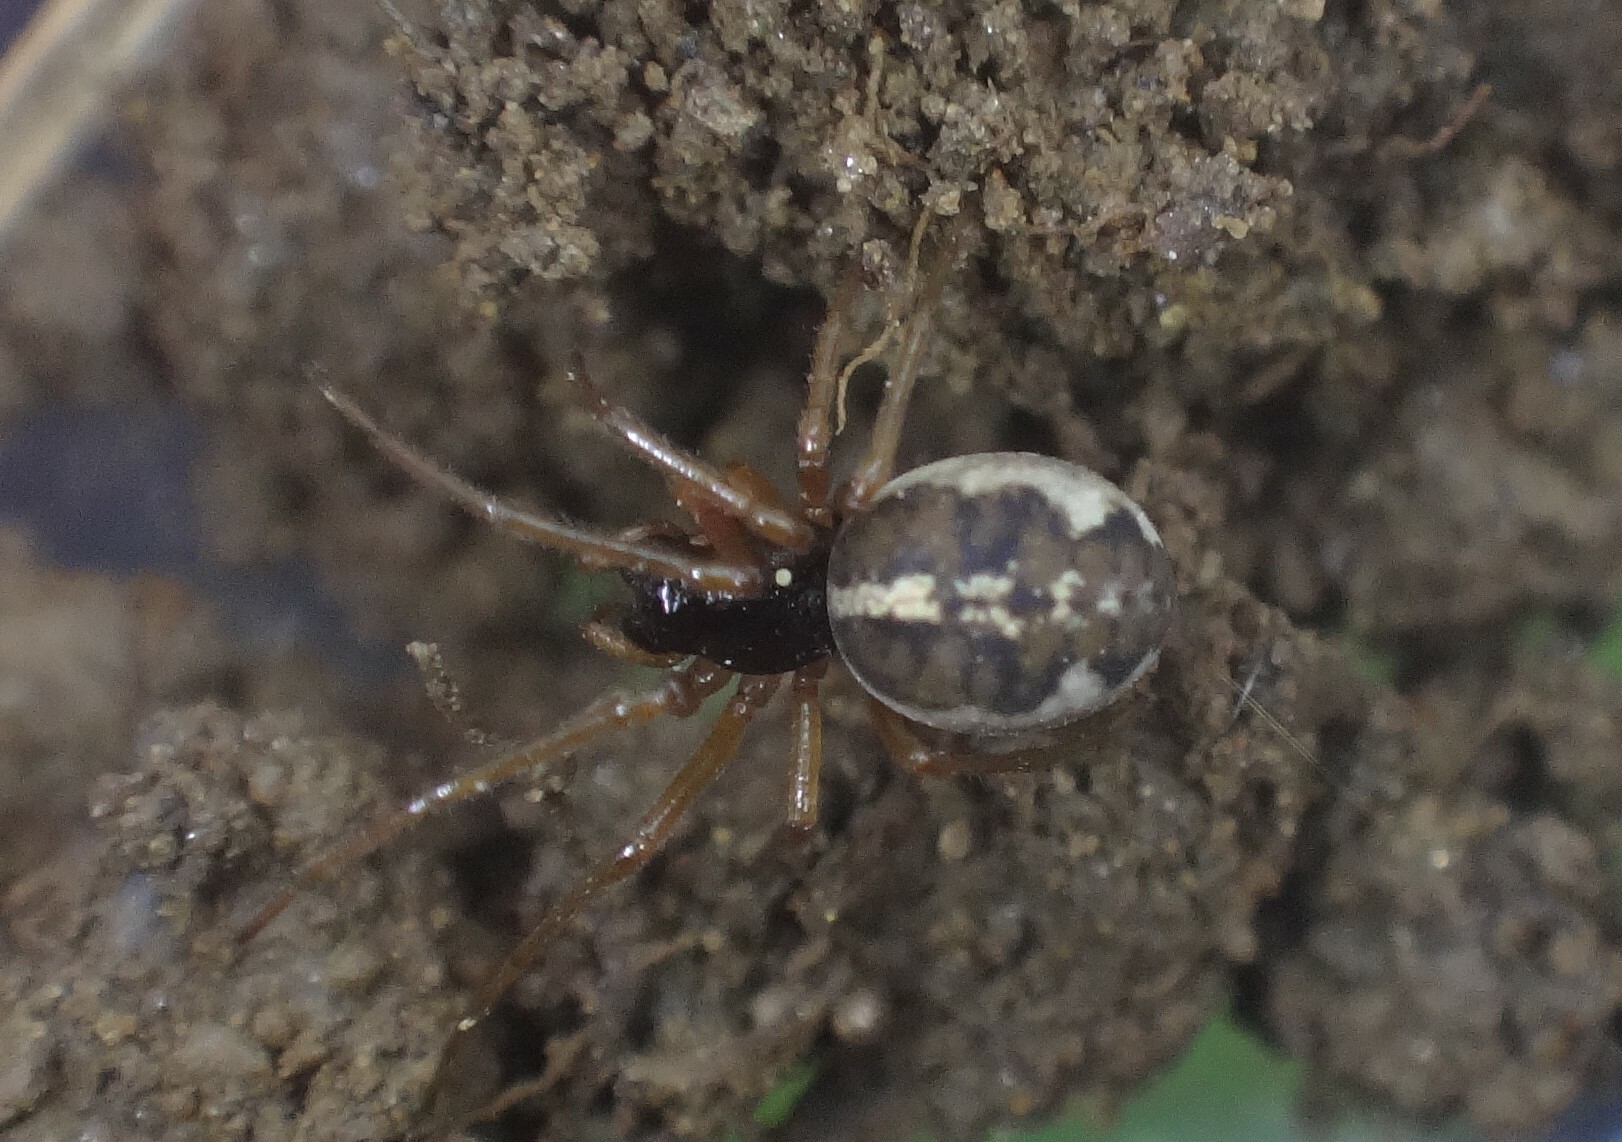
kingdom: Animalia
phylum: Arthropoda
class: Arachnida
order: Araneae
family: Tetragnathidae
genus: Pachygnatha
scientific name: Pachygnatha degeeri
